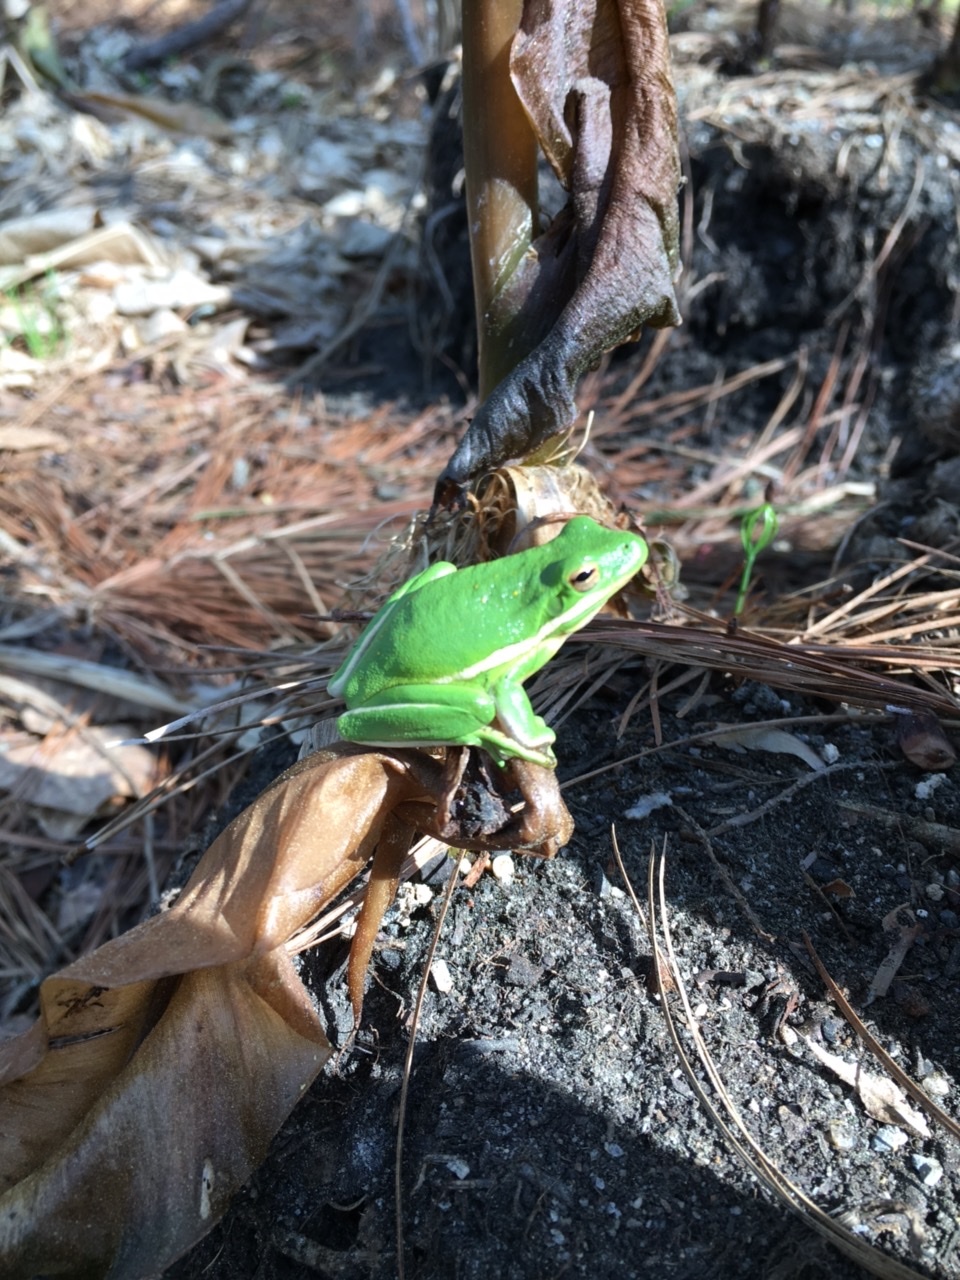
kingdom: Animalia
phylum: Chordata
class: Amphibia
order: Anura
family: Hylidae
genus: Dryophytes
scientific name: Dryophytes cinereus
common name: Green treefrog
